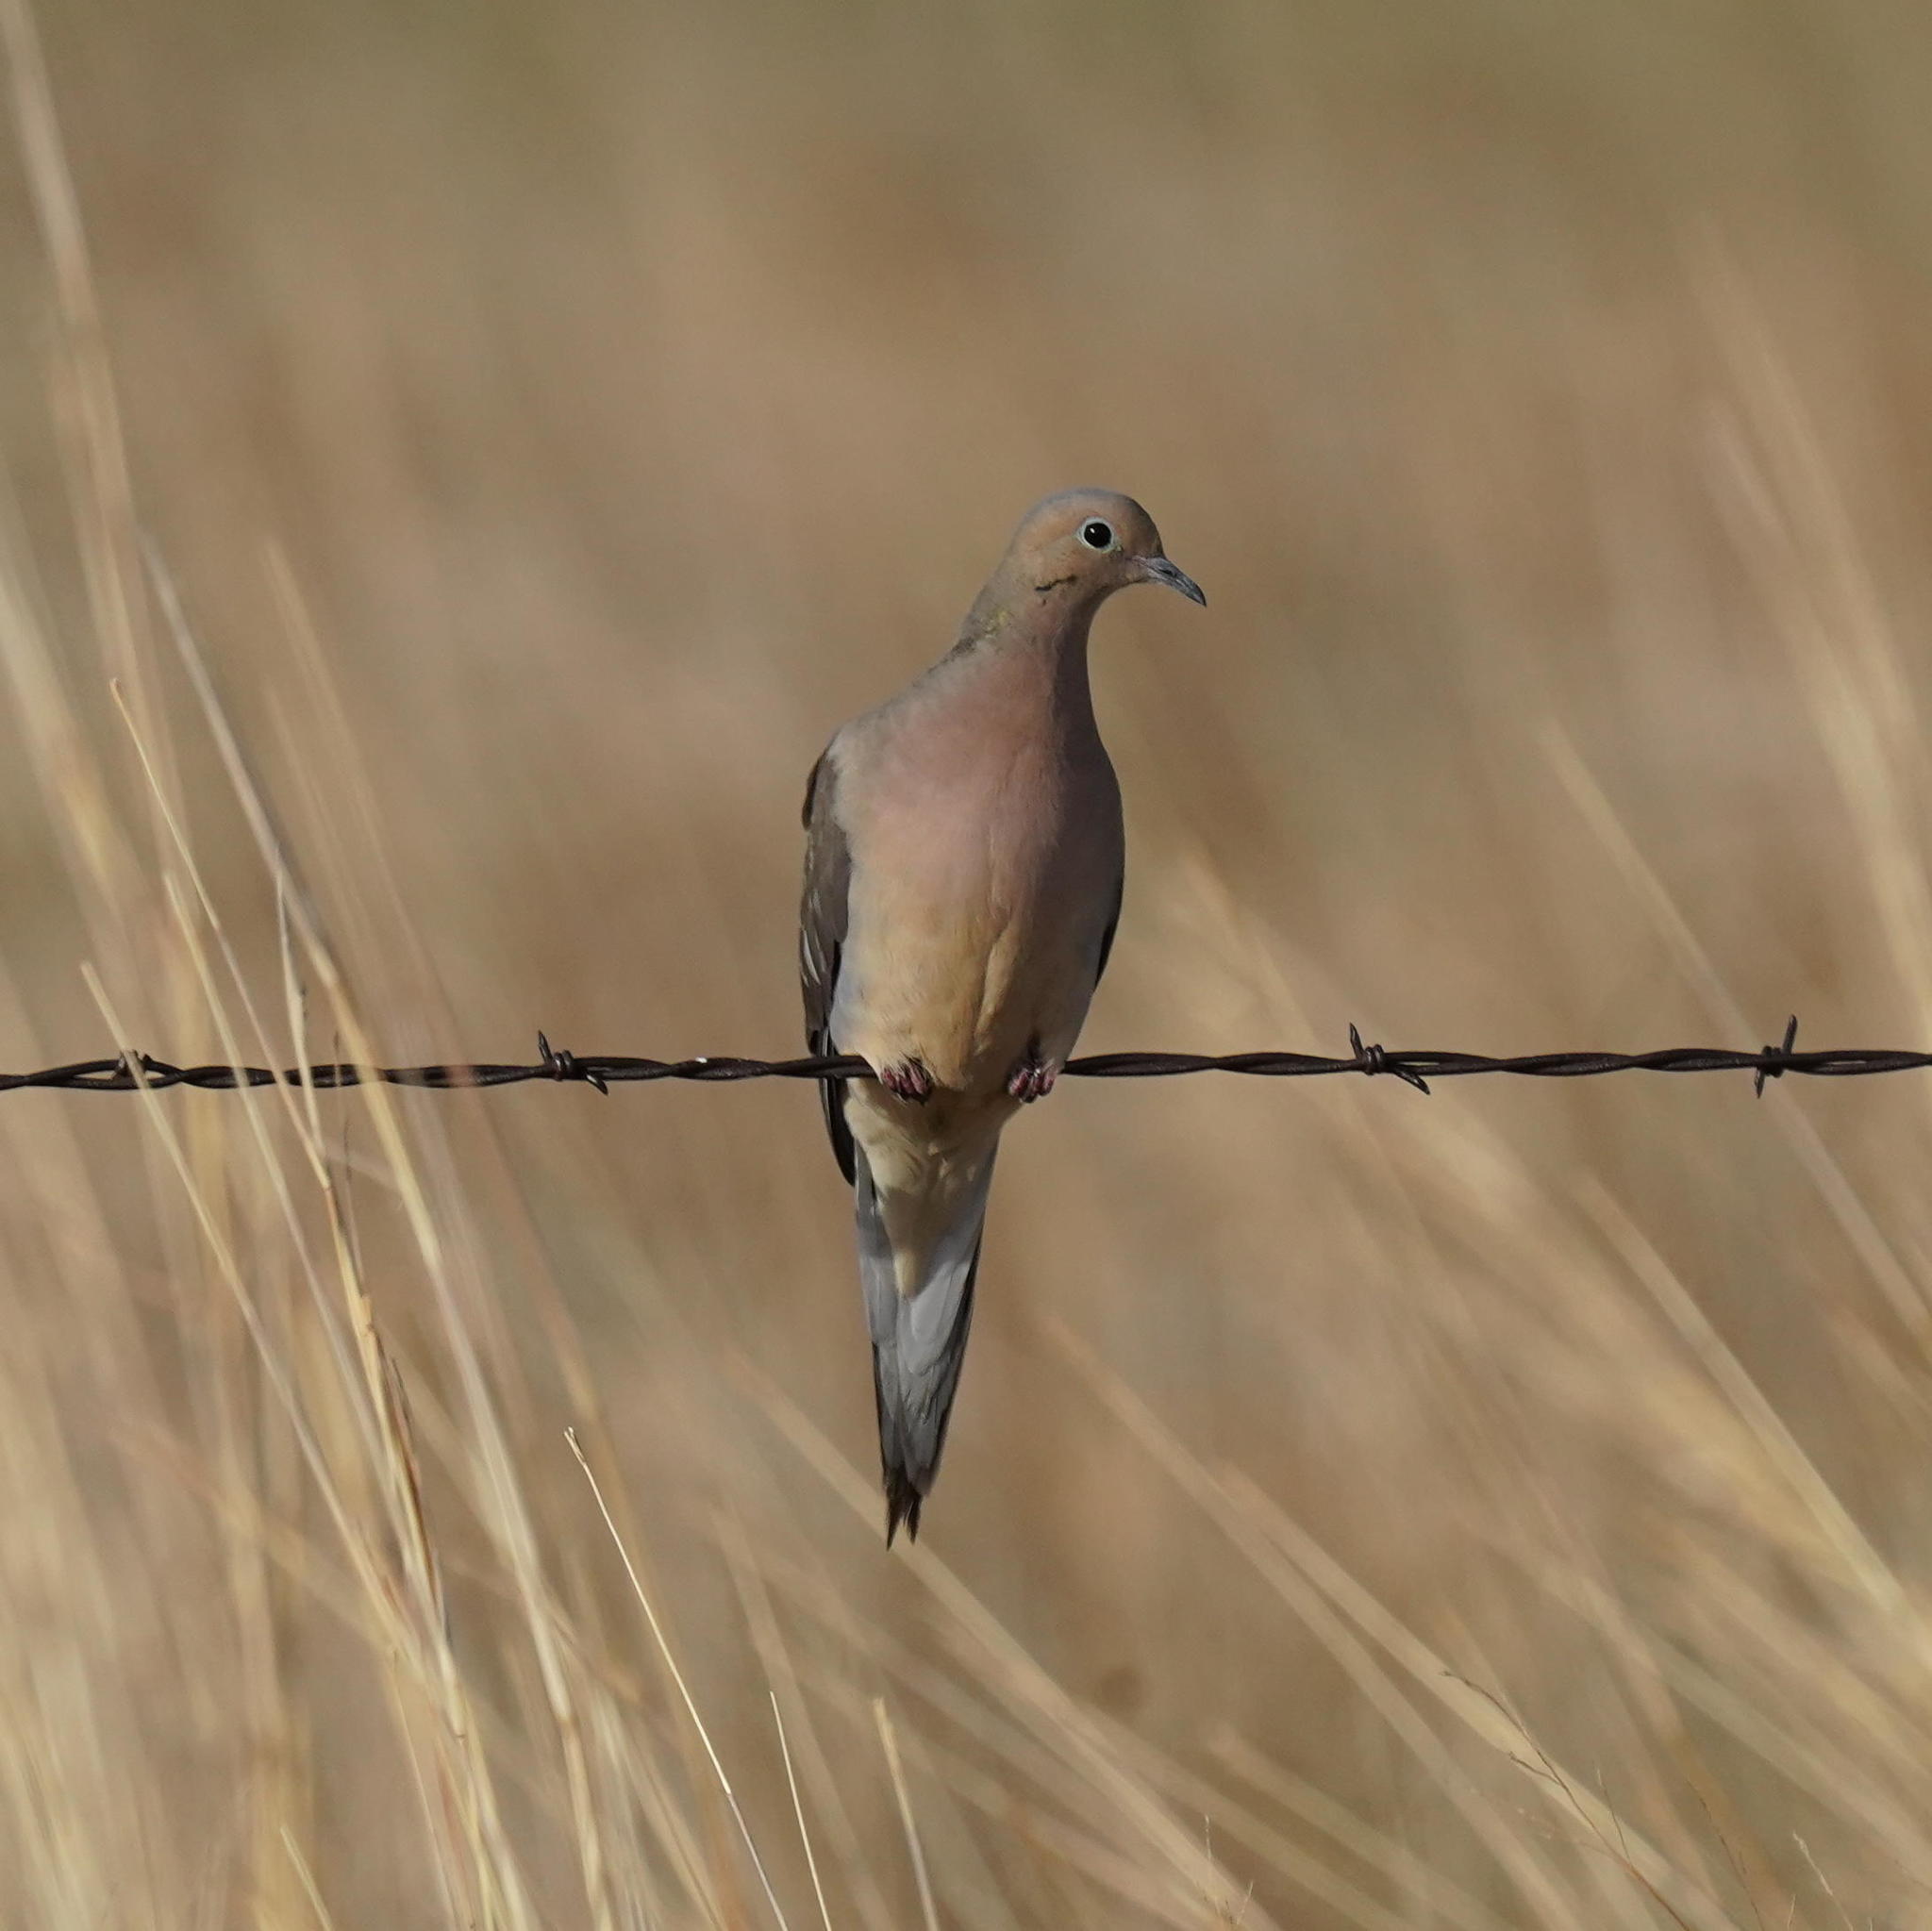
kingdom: Animalia
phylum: Chordata
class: Aves
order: Columbiformes
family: Columbidae
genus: Zenaida
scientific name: Zenaida macroura
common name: Mourning dove
